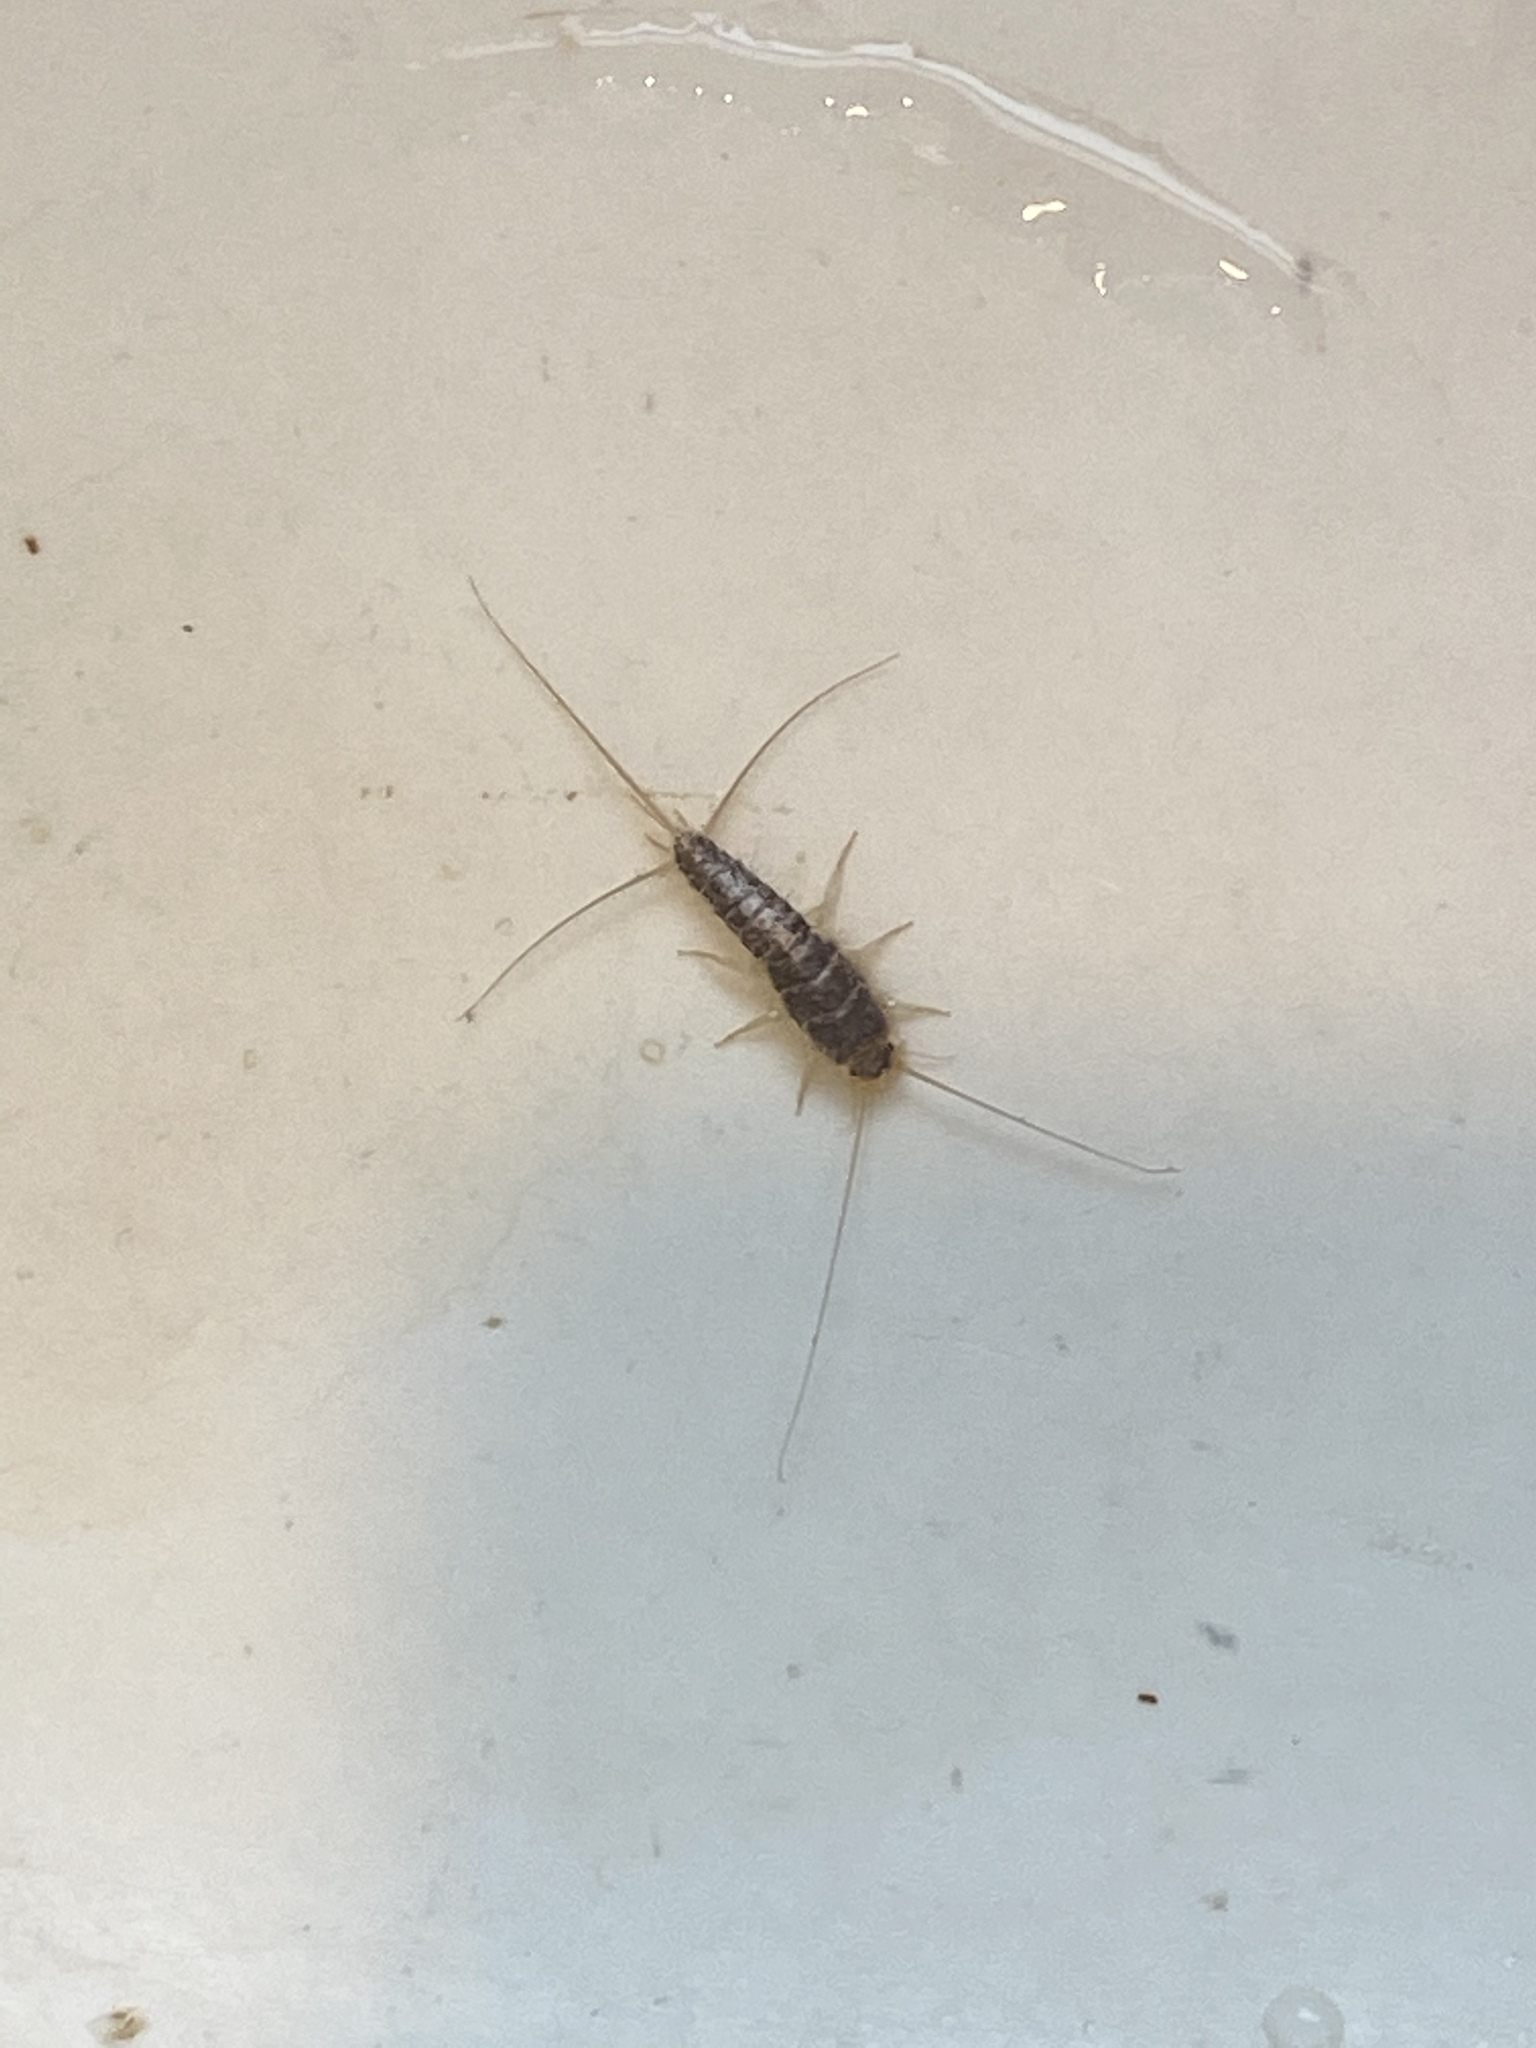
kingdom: Animalia
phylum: Arthropoda
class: Insecta
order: Zygentoma
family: Lepismatidae
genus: Ctenolepisma
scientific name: Ctenolepisma longicaudatum
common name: Silverfish
